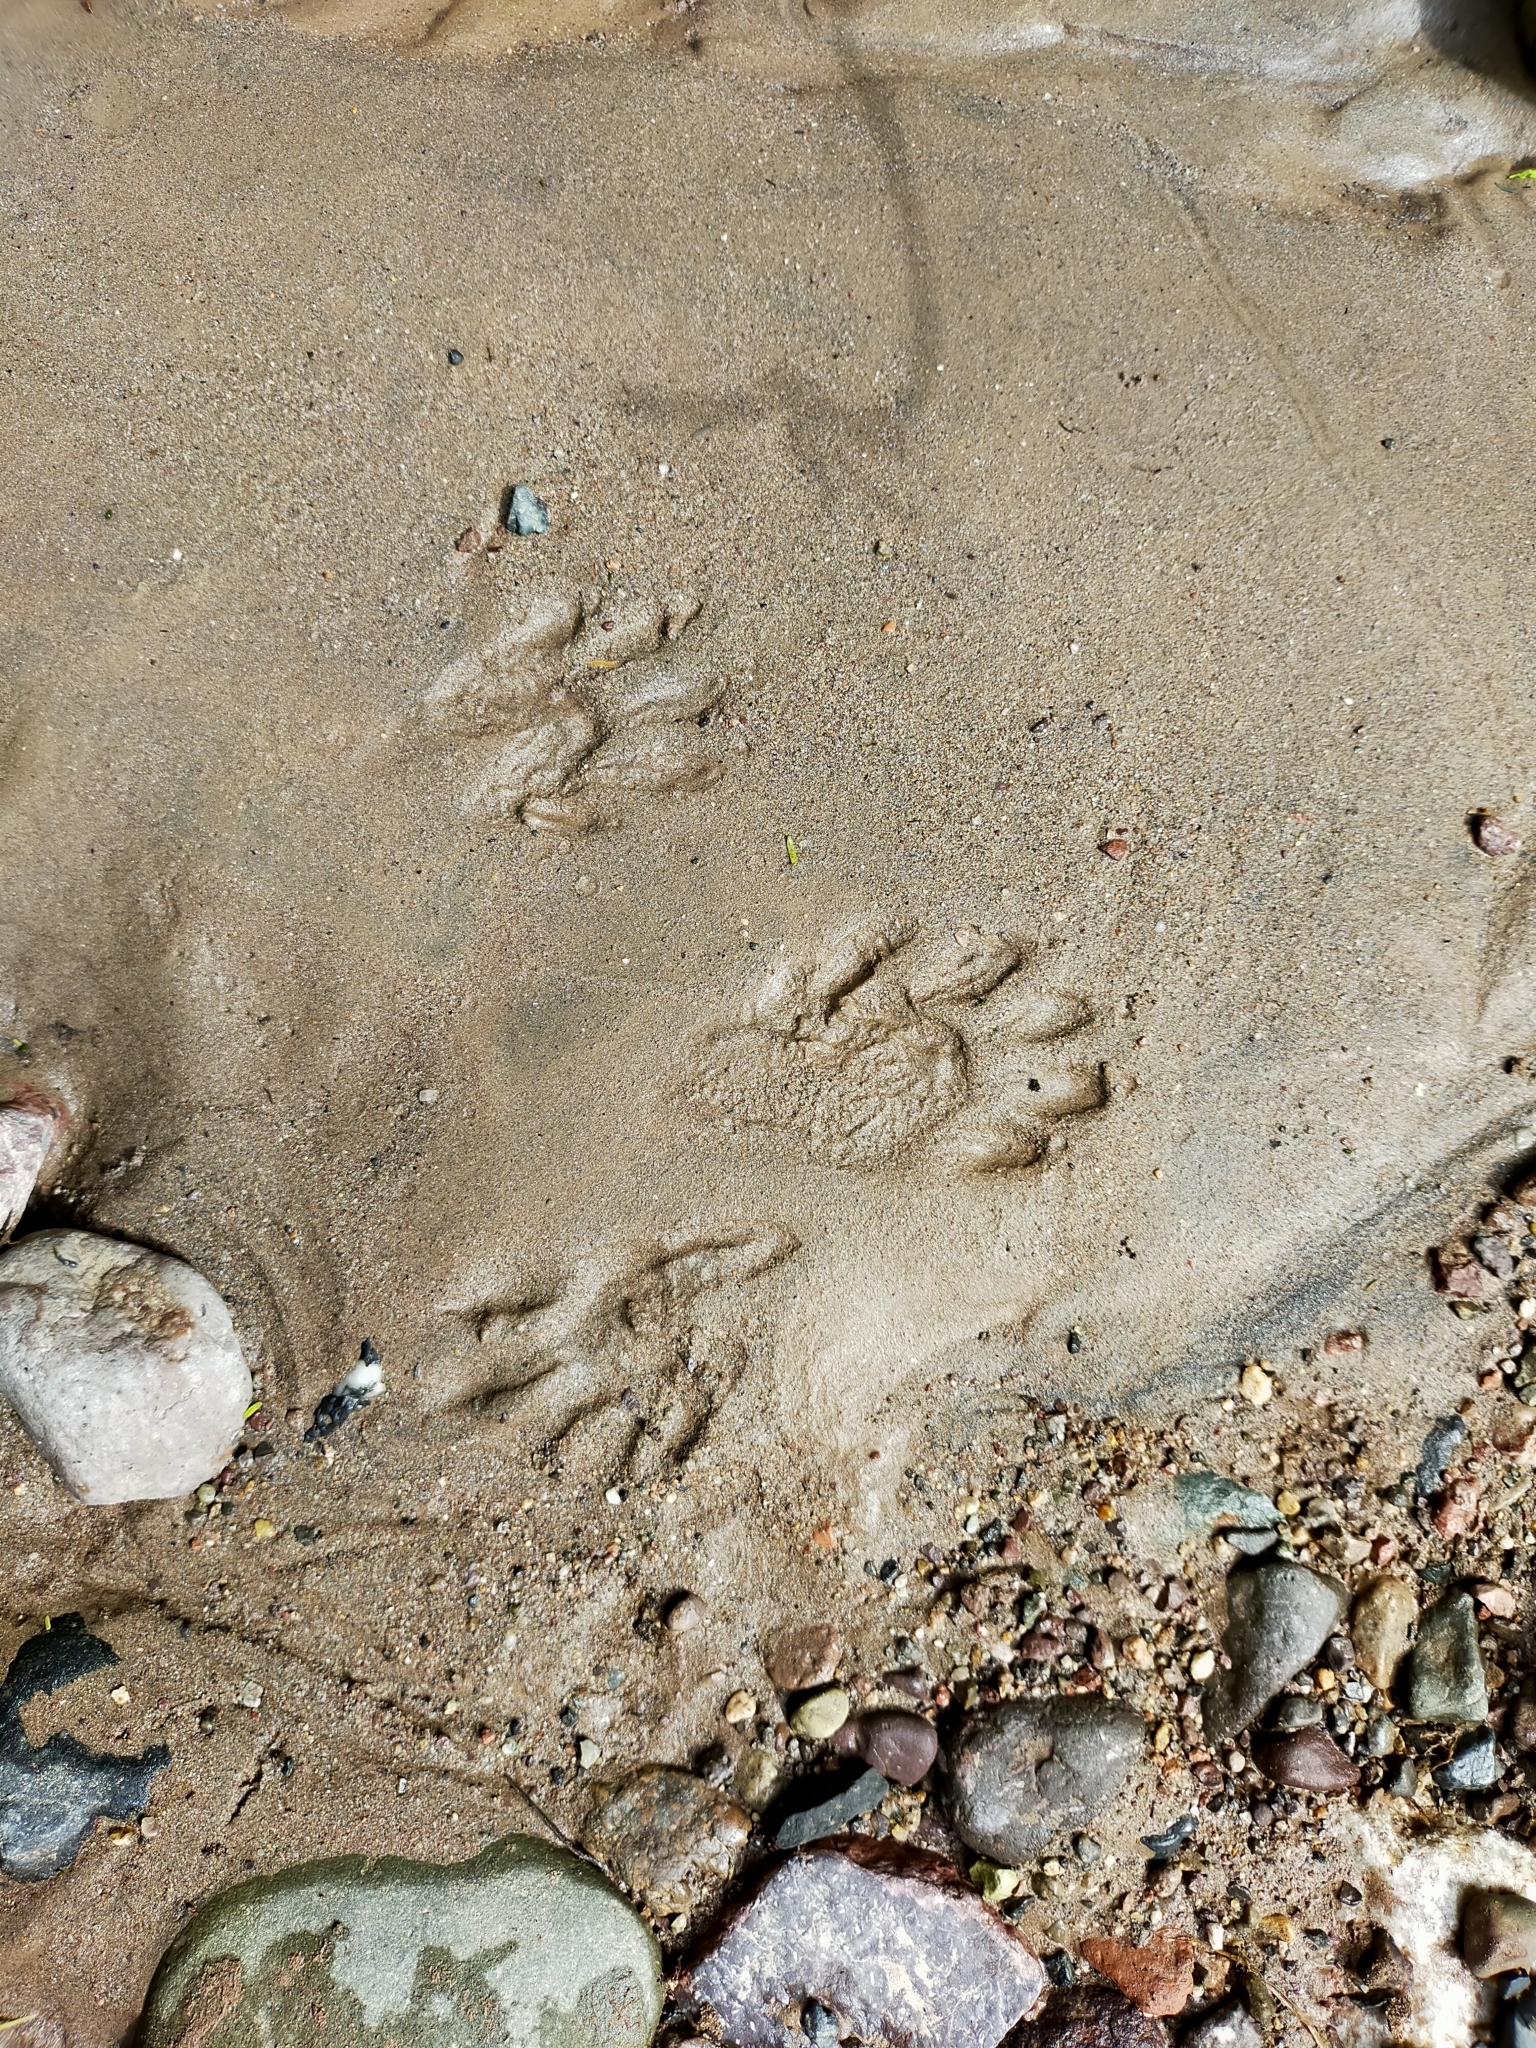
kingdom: Animalia
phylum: Chordata
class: Mammalia
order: Carnivora
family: Procyonidae
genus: Procyon
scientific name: Procyon lotor
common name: Raccoon
